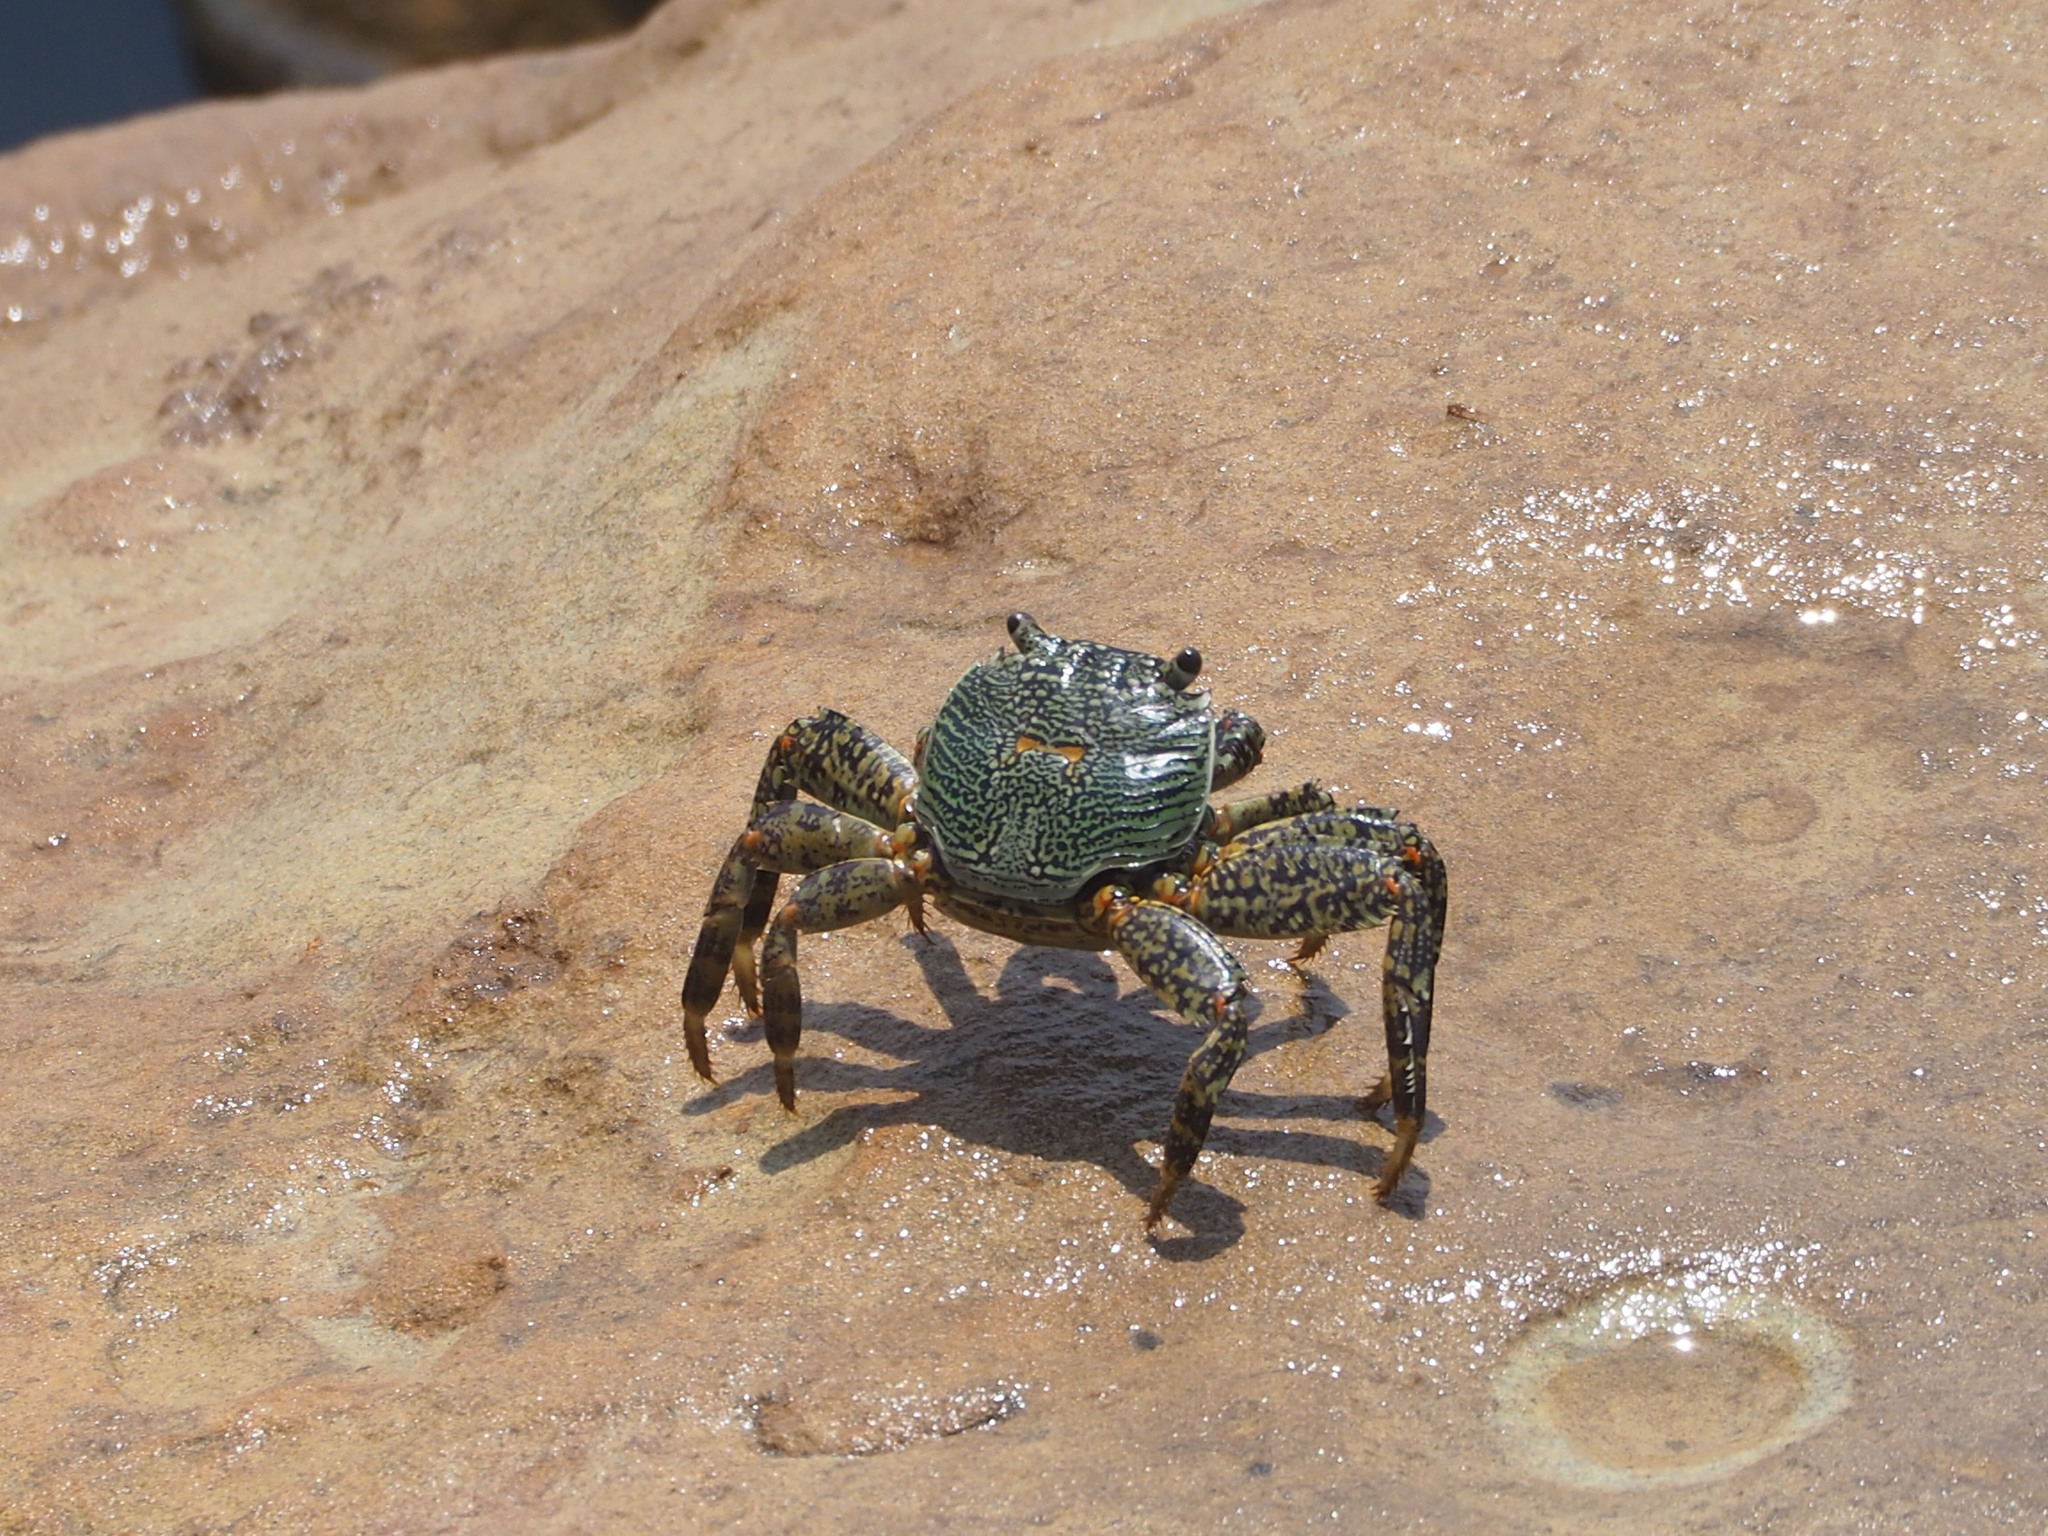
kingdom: Animalia
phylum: Arthropoda
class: Malacostraca
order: Decapoda
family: Grapsidae
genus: Grapsus
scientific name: Grapsus albolineatus
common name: Mottled lightfoot crab
